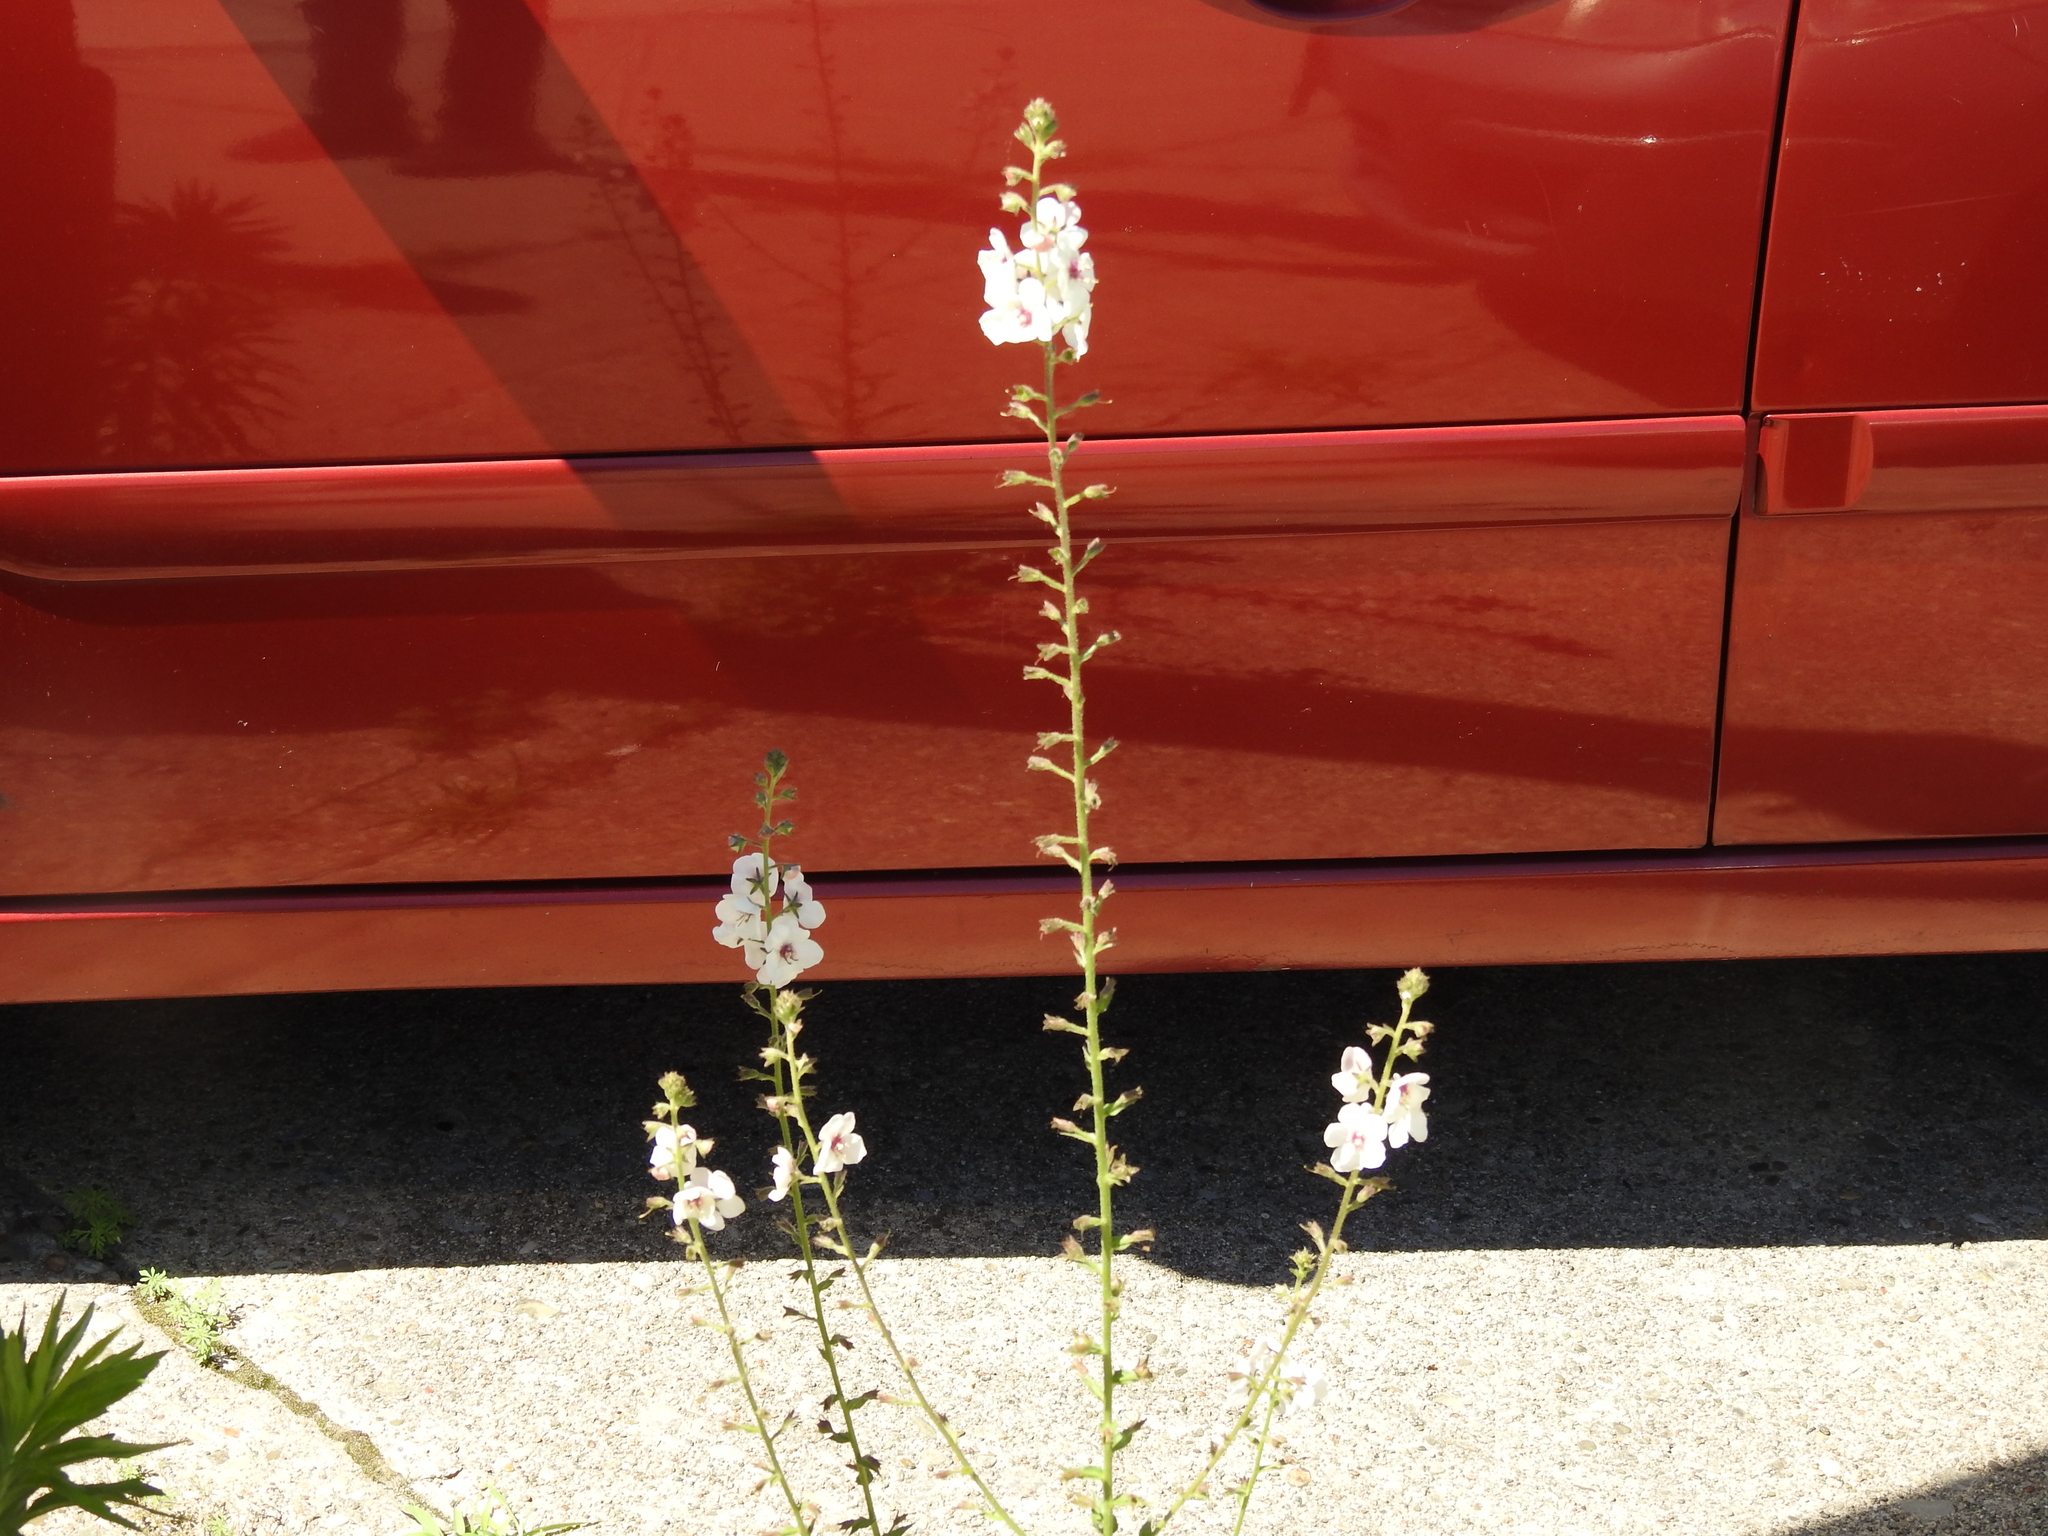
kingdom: Plantae
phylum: Tracheophyta
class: Magnoliopsida
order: Lamiales
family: Scrophulariaceae
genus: Verbascum
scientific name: Verbascum blattaria
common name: Moth mullein
